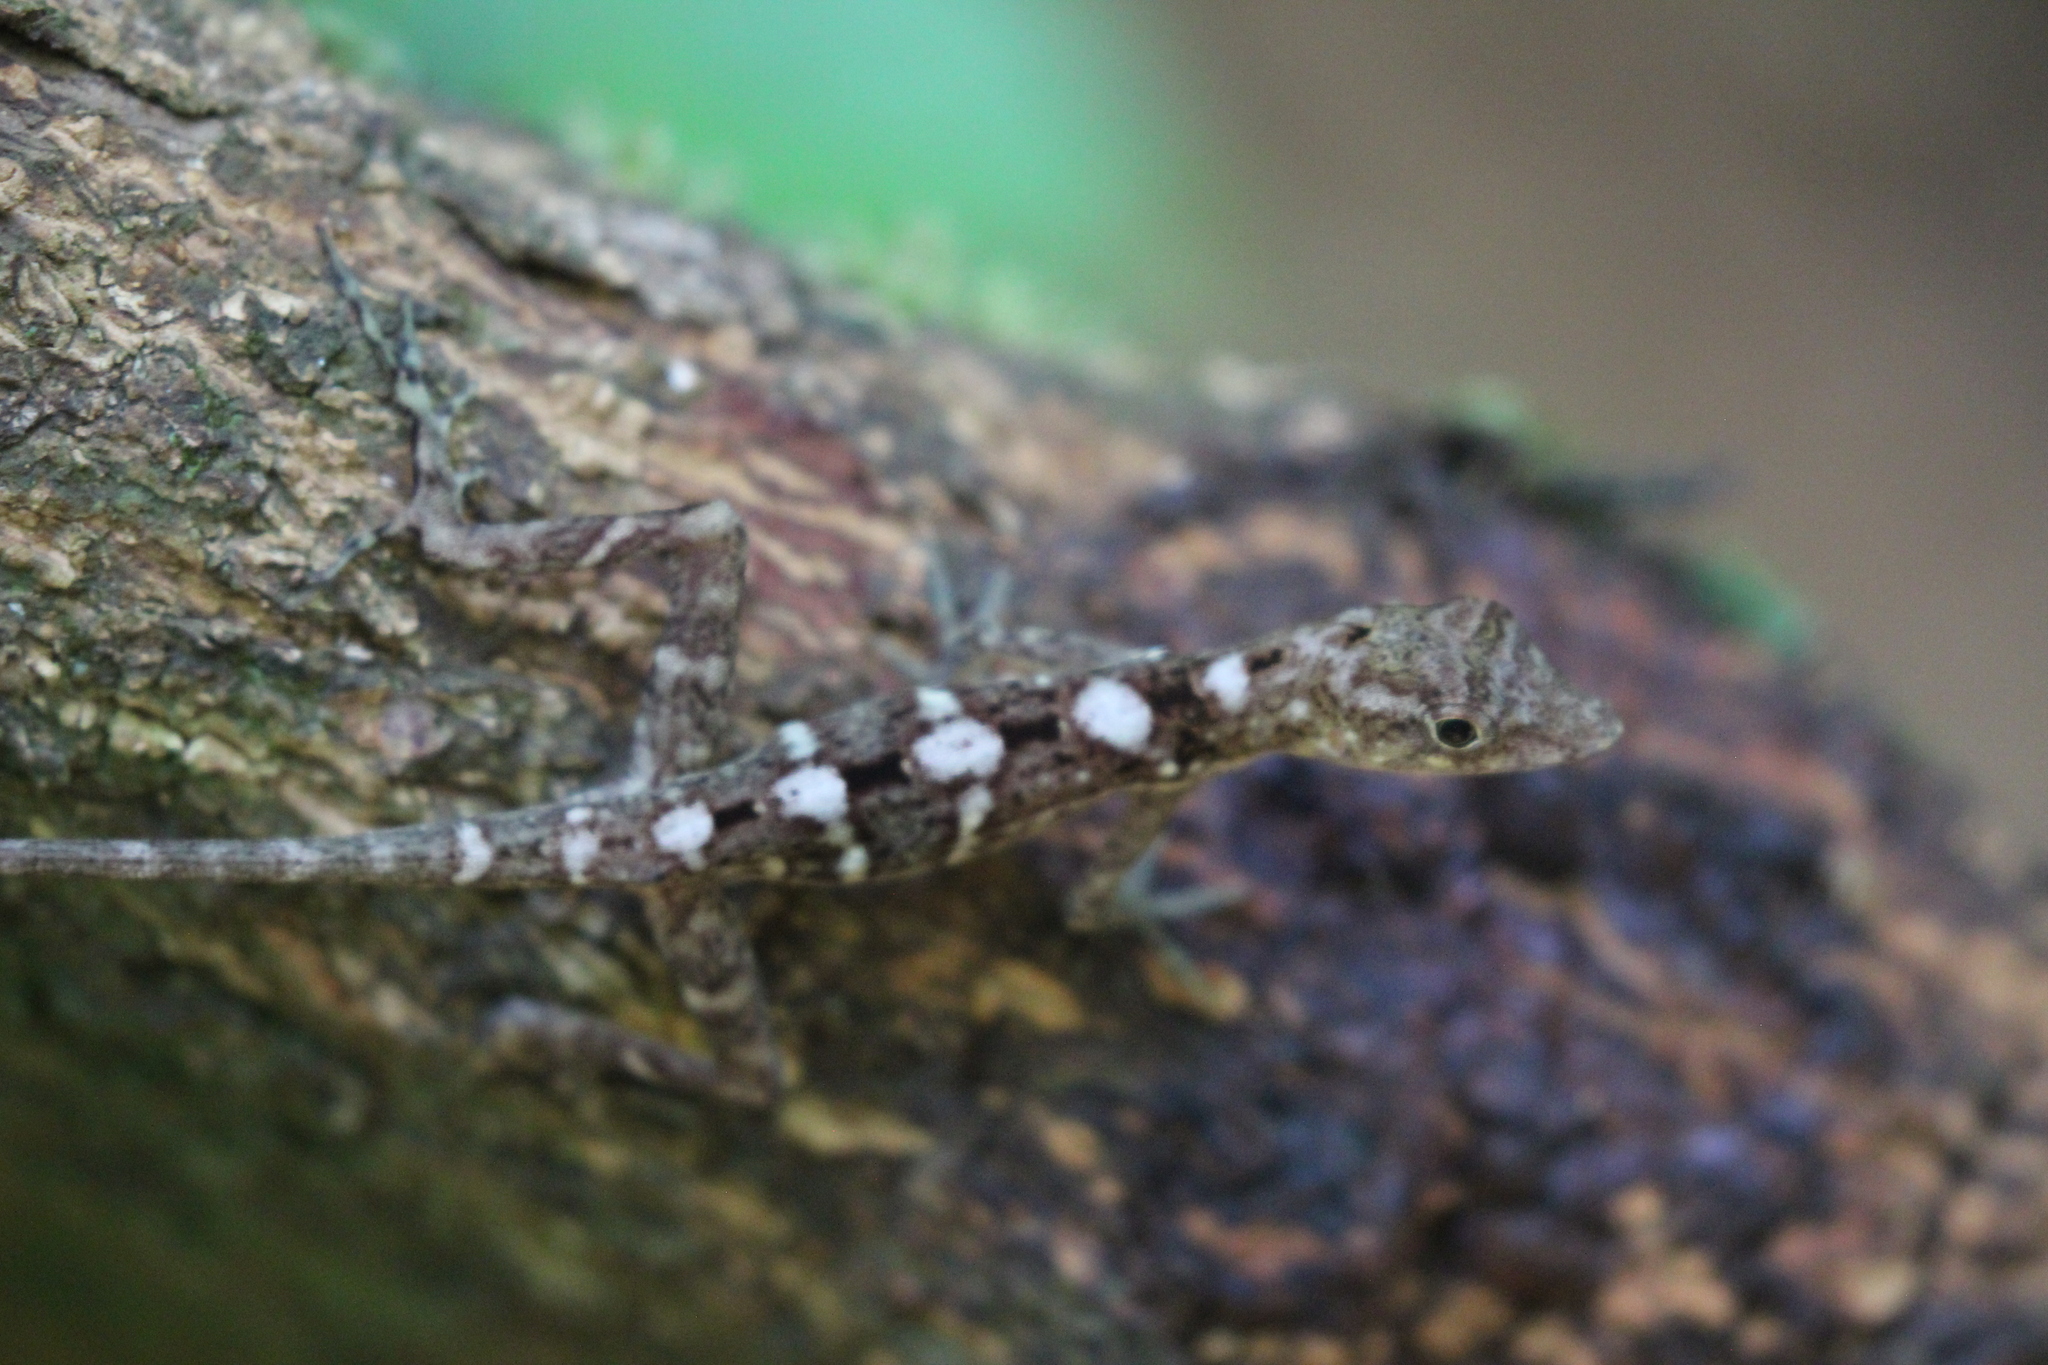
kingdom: Animalia
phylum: Chordata
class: Squamata
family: Dactyloidae
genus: Anolis
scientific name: Anolis osa
